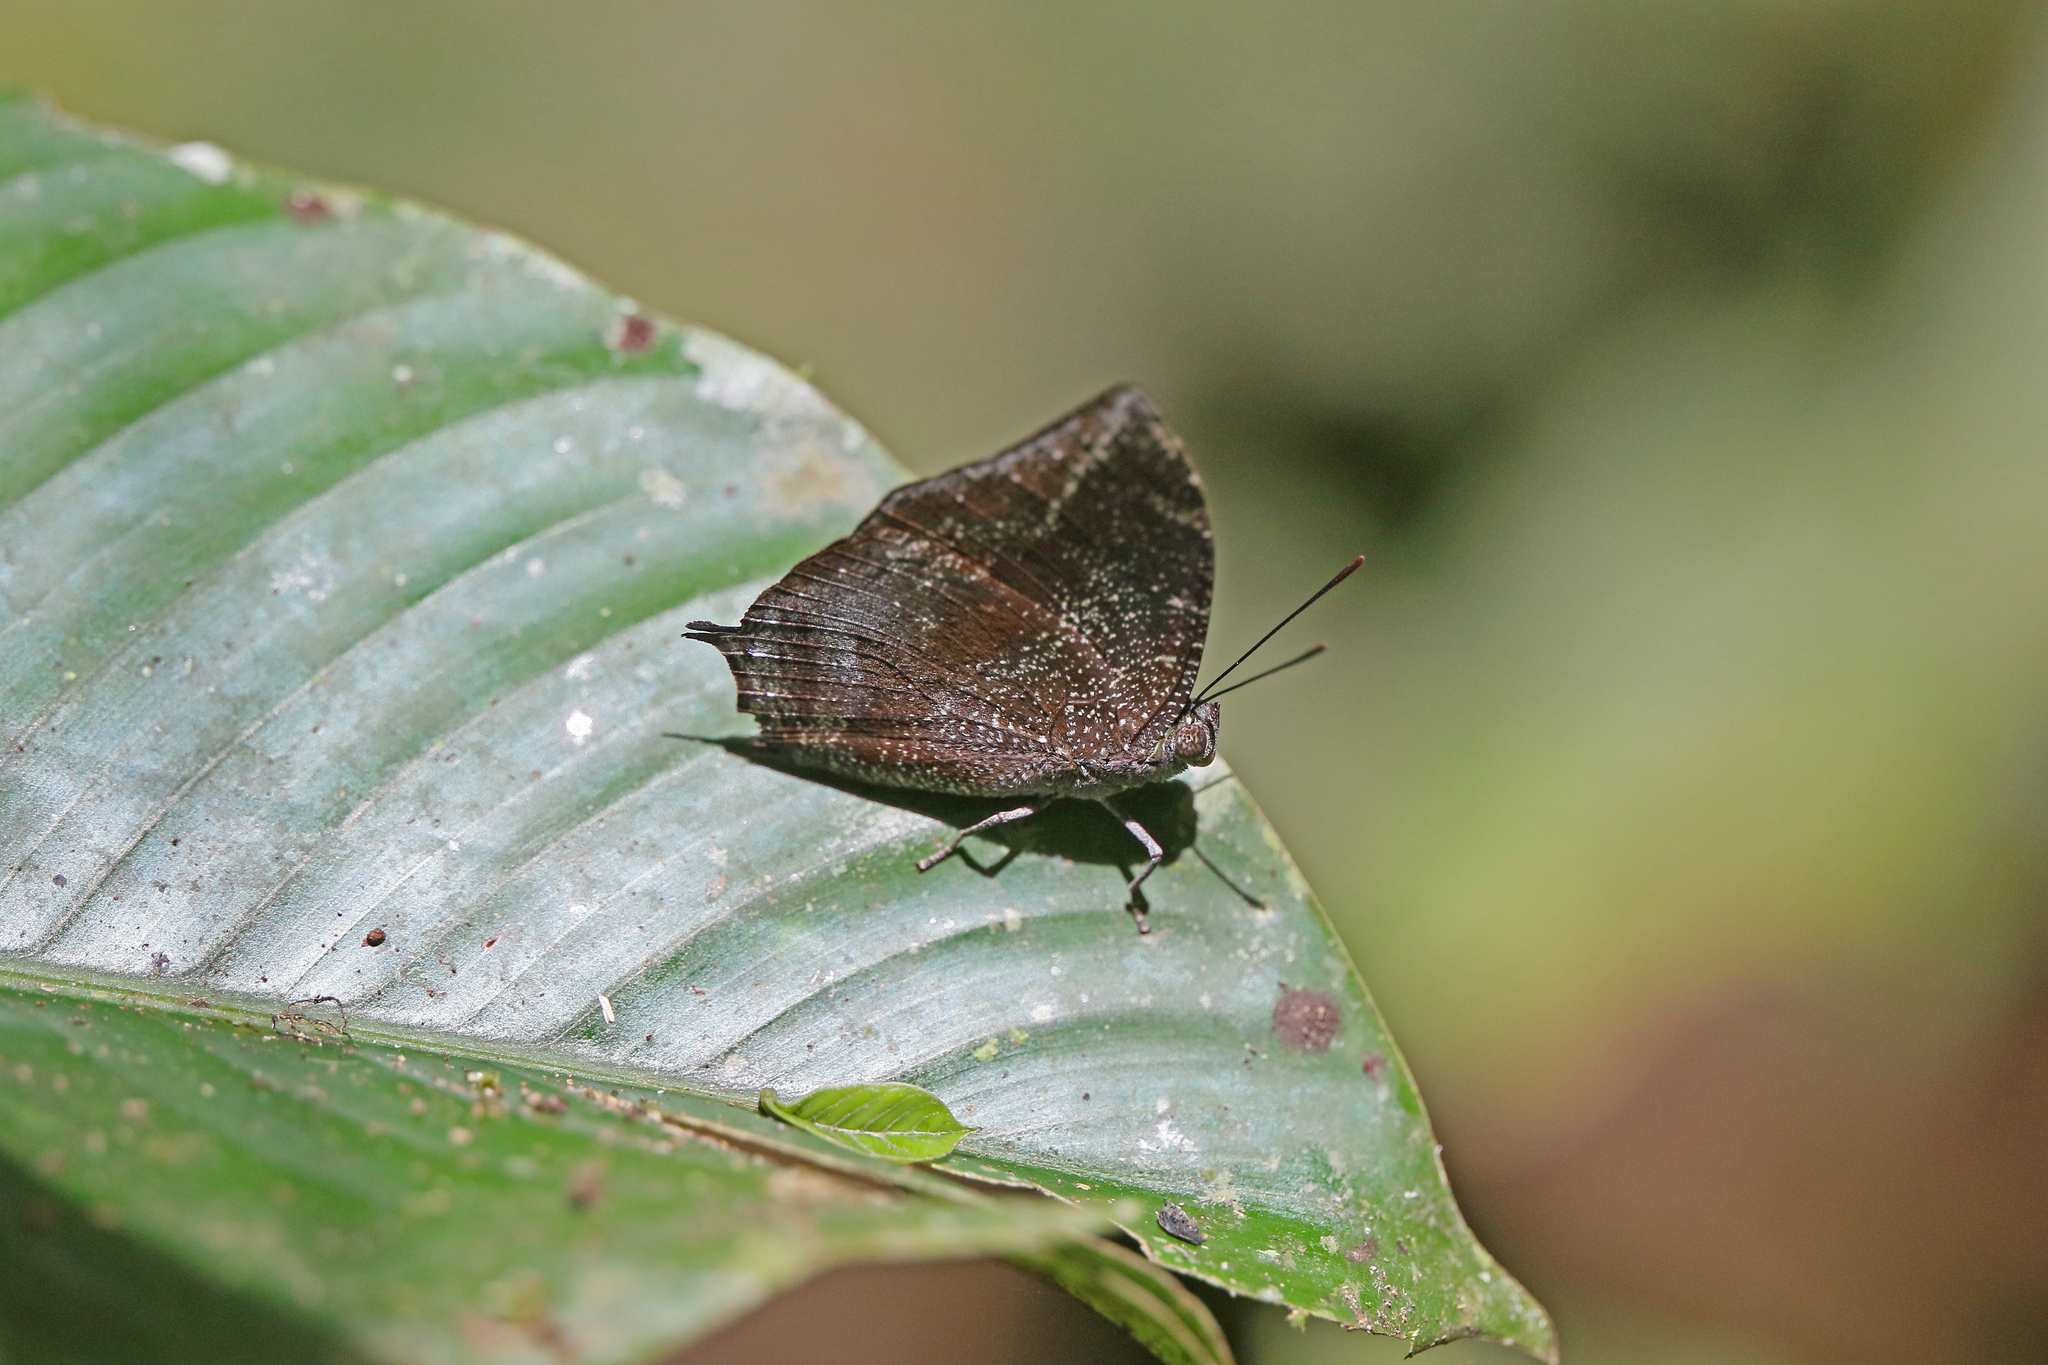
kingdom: Animalia
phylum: Arthropoda
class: Insecta
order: Lepidoptera
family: Nymphalidae
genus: Anaea
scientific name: Anaea arachne
